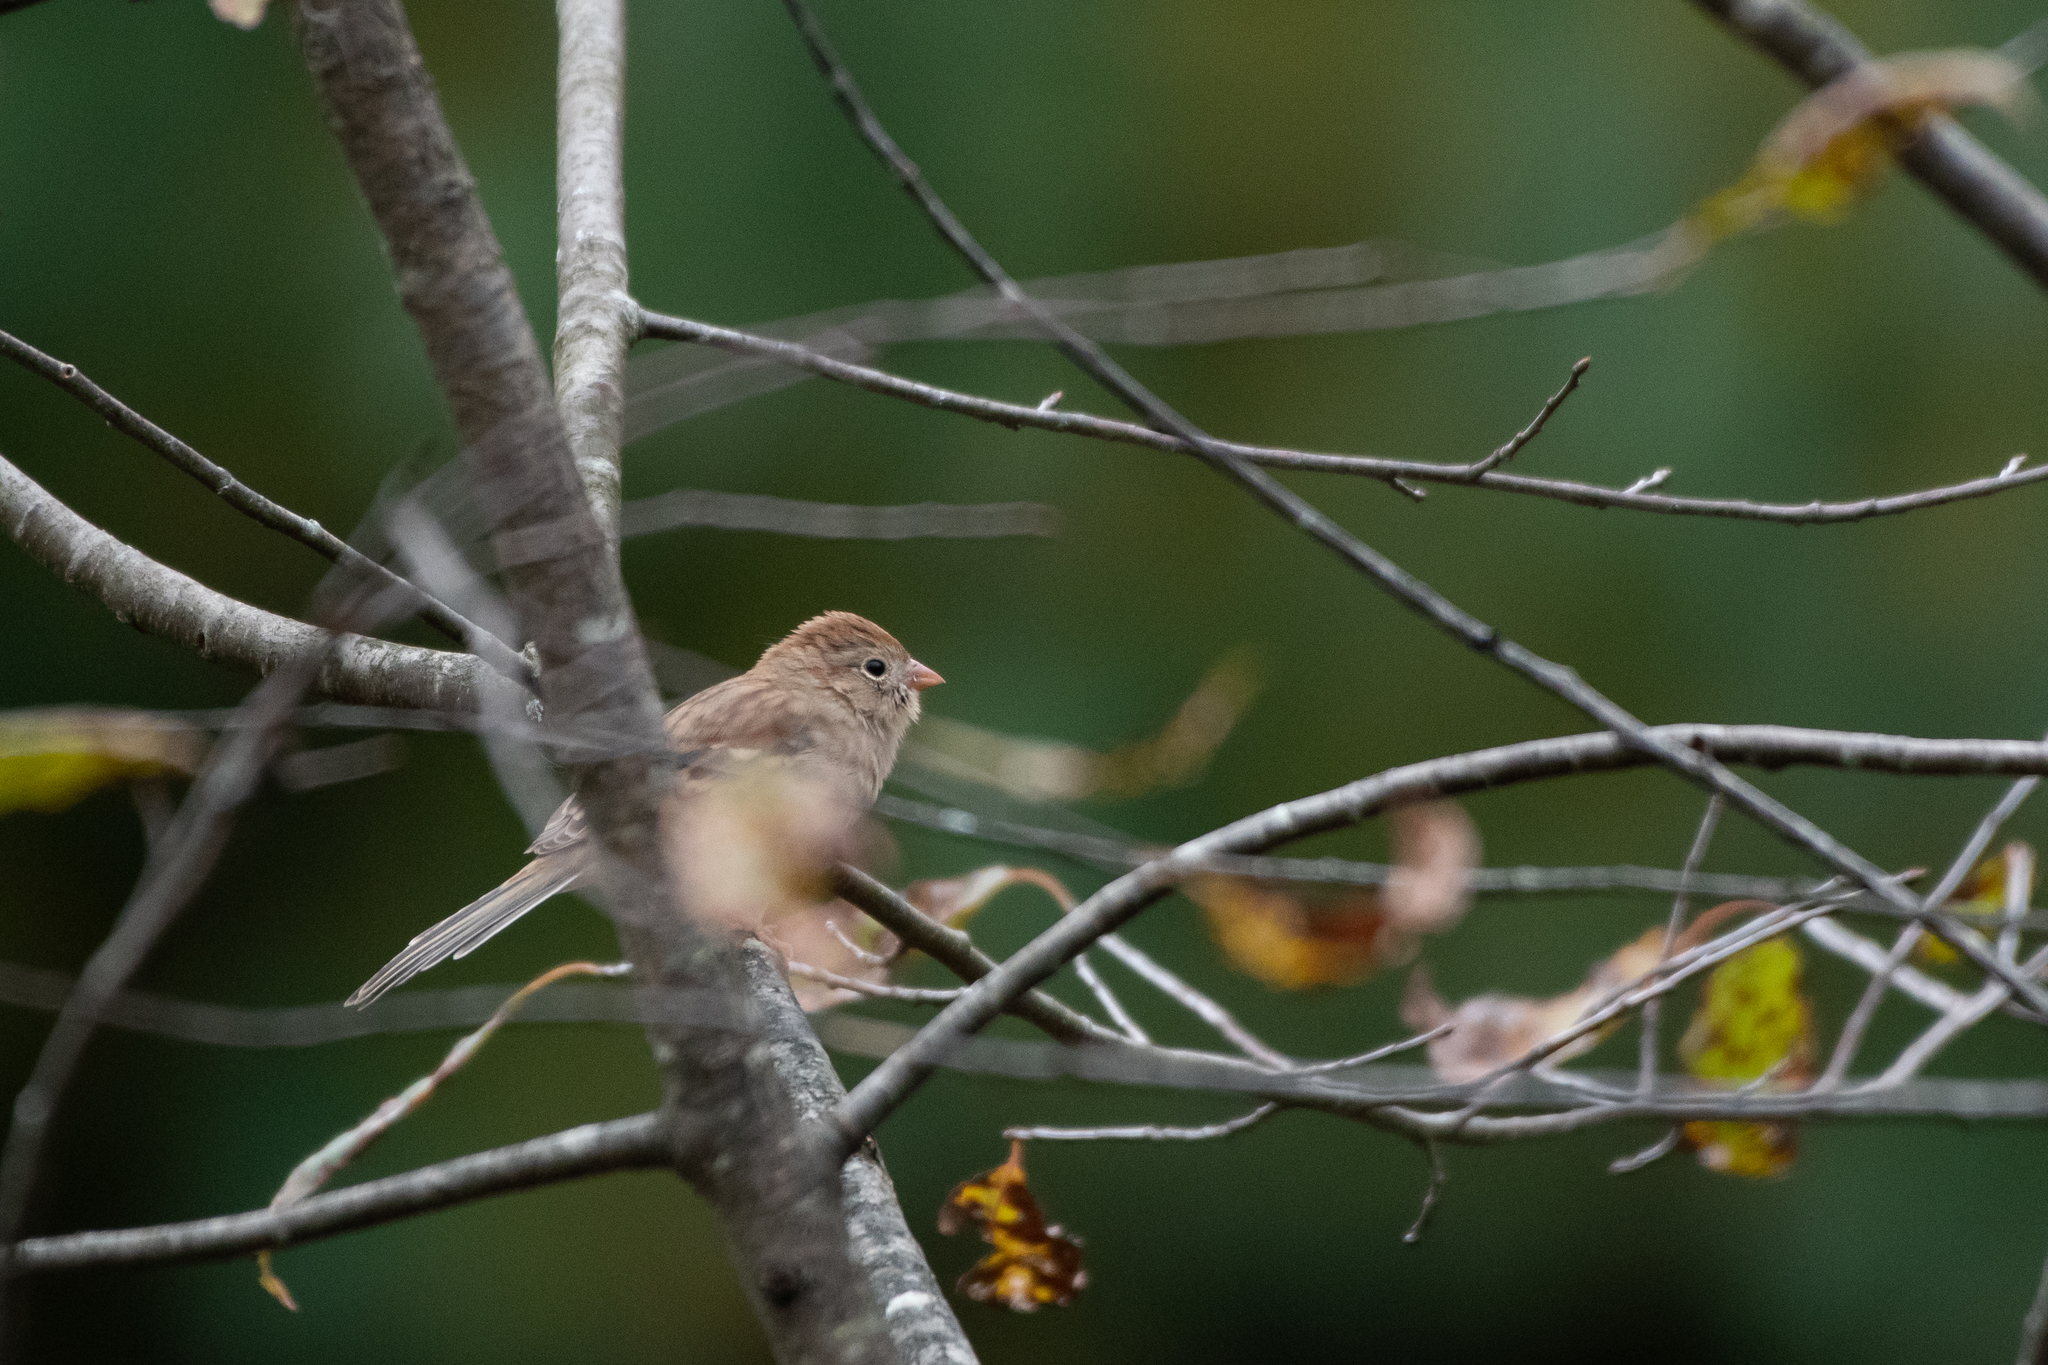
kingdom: Animalia
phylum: Chordata
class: Aves
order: Passeriformes
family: Passerellidae
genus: Spizella
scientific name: Spizella pusilla
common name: Field sparrow
